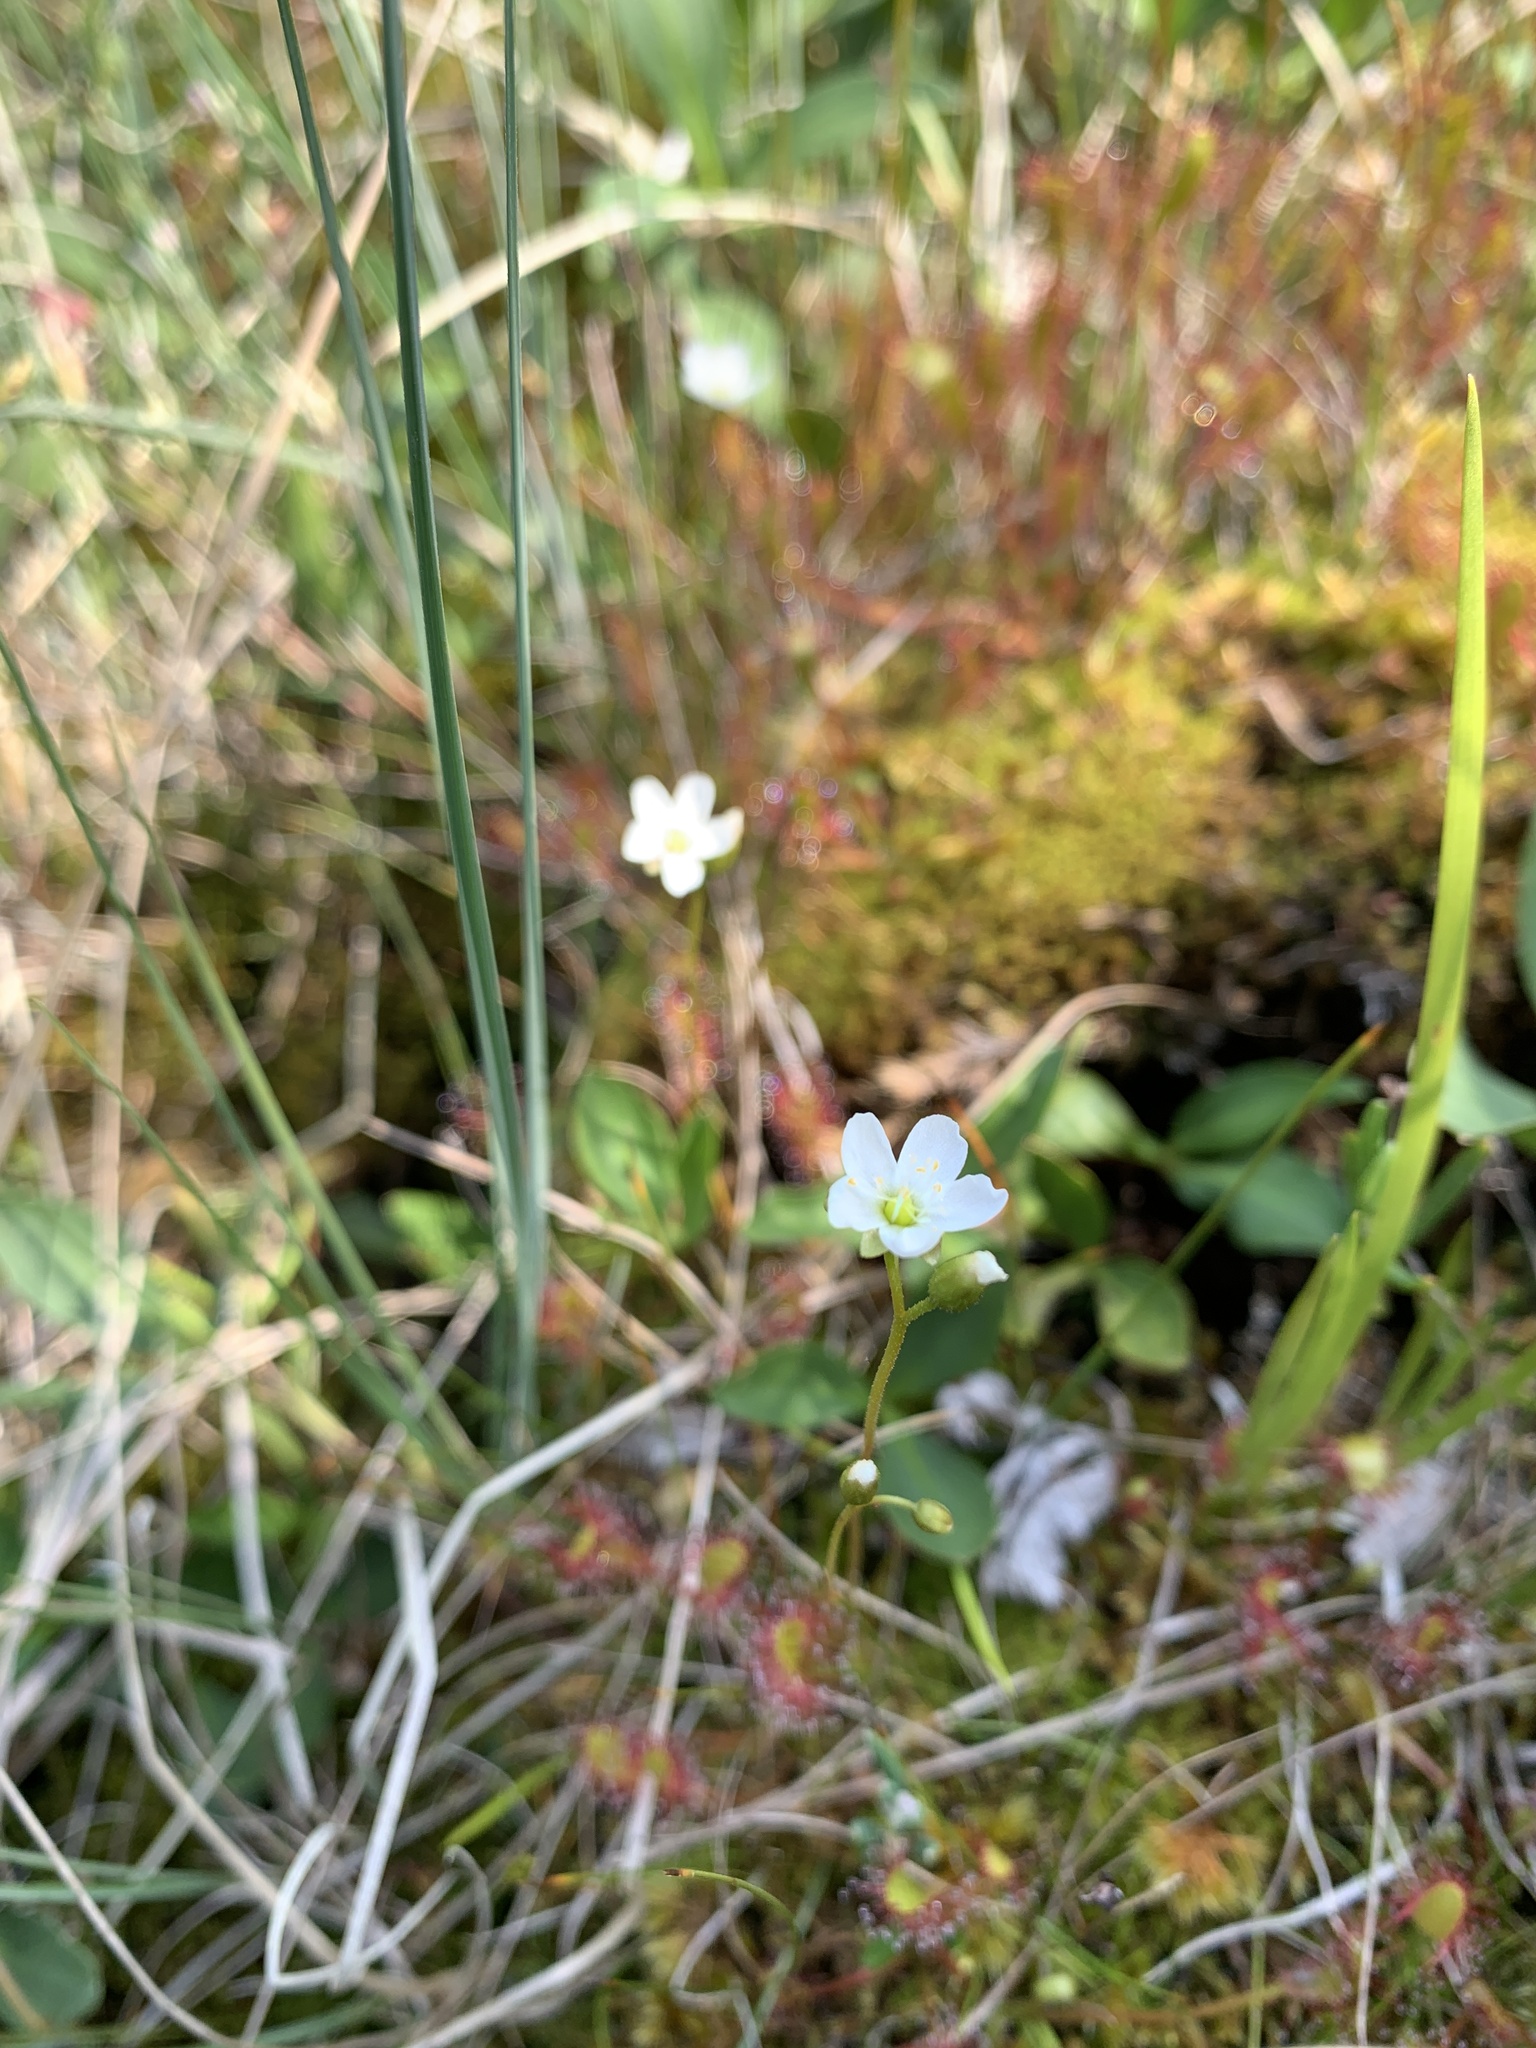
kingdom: Plantae
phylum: Tracheophyta
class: Magnoliopsida
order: Caryophyllales
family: Droseraceae
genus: Drosera
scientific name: Drosera anglica
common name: Great sundew
